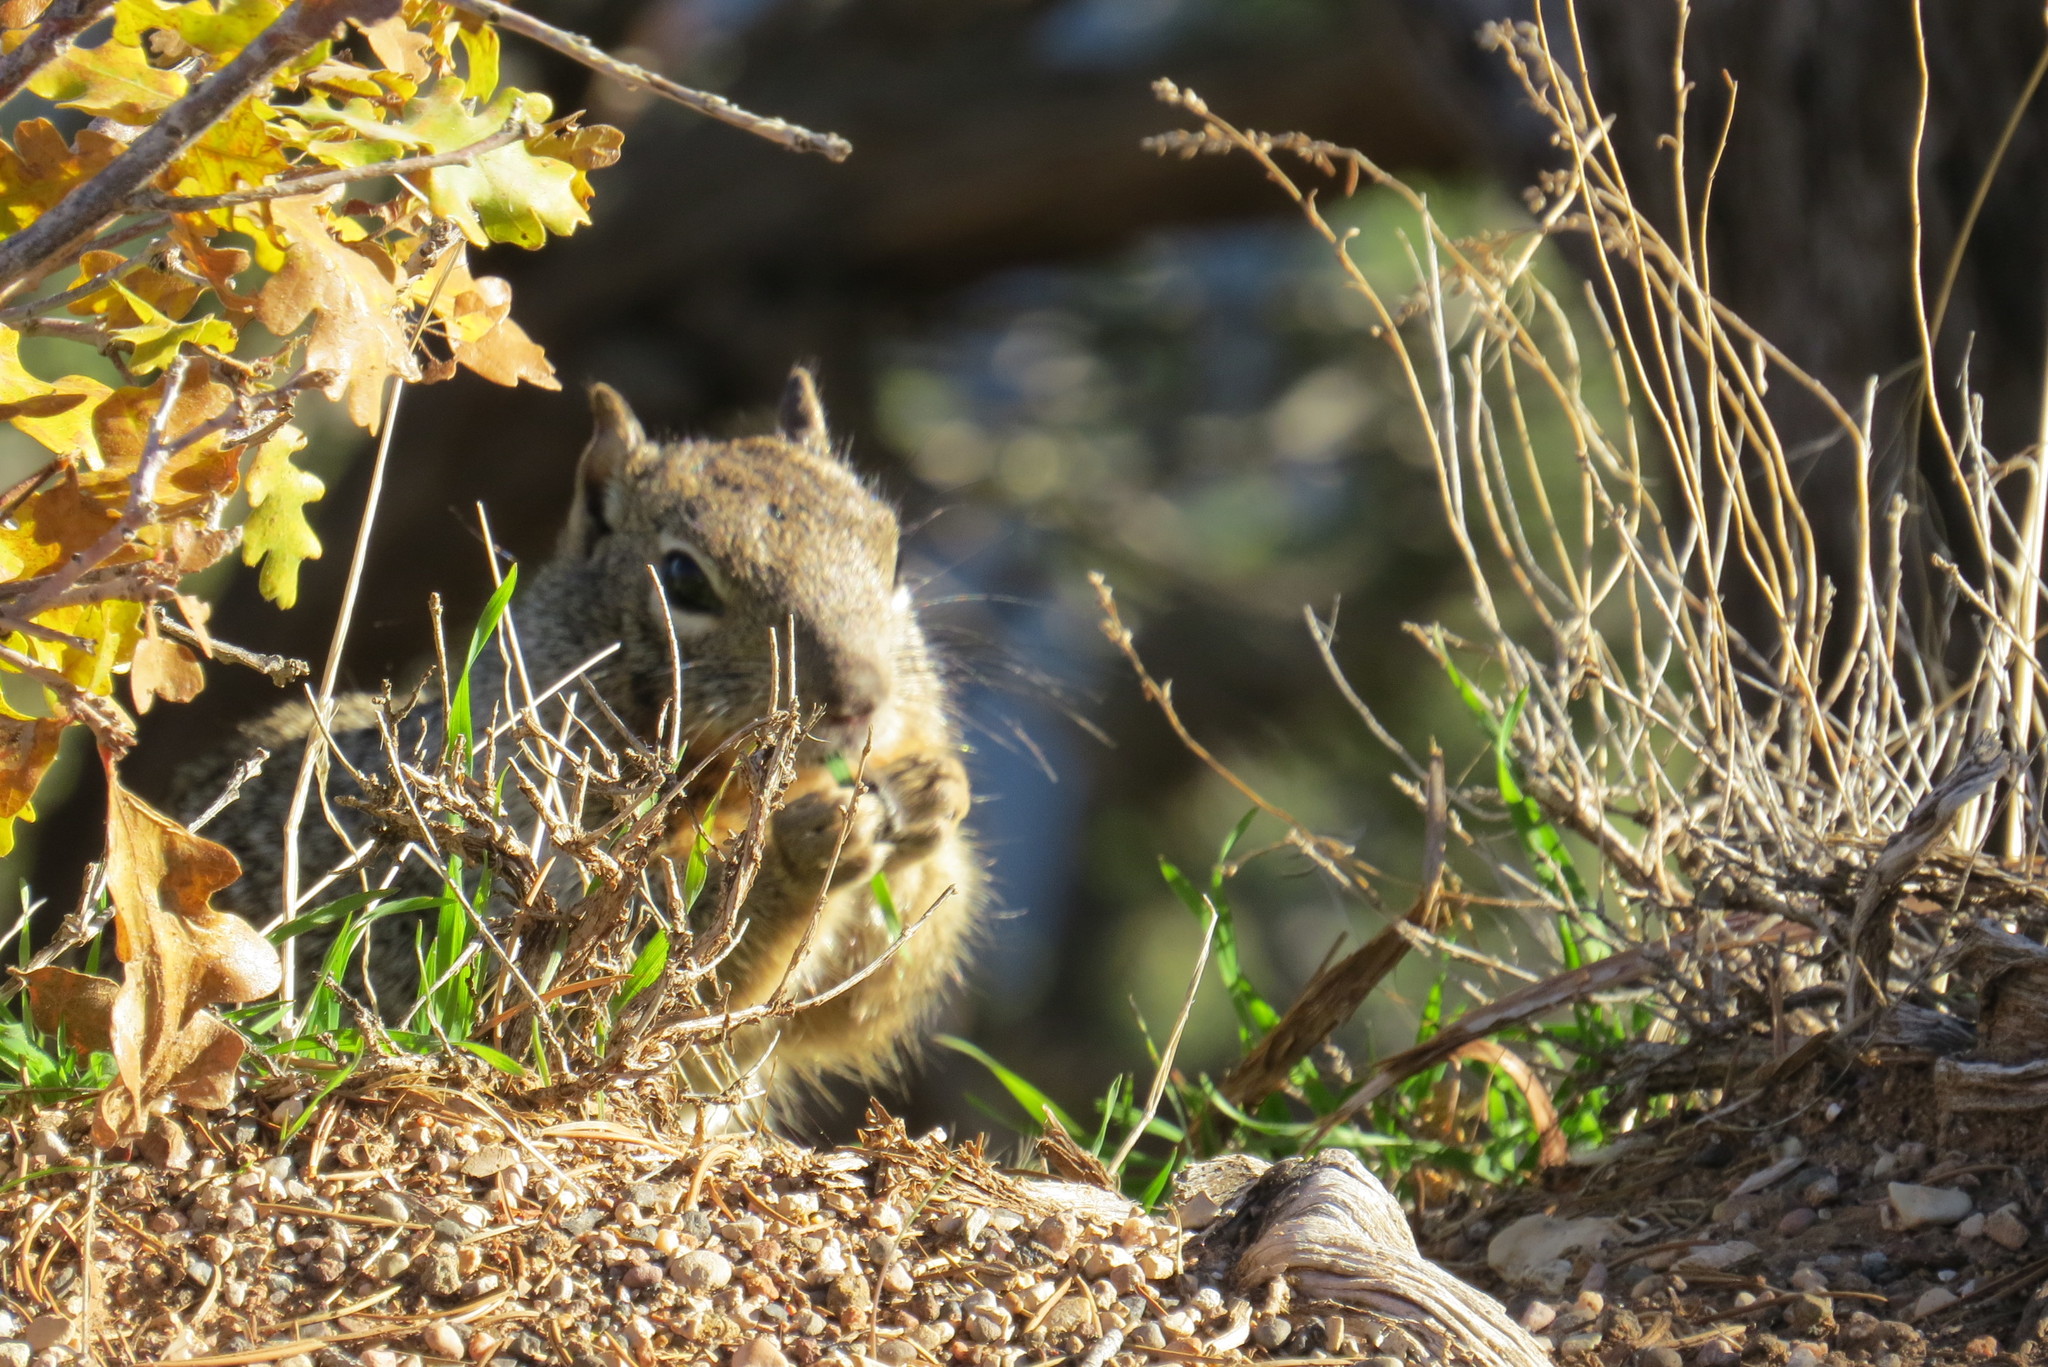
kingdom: Animalia
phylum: Chordata
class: Mammalia
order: Rodentia
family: Sciuridae
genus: Otospermophilus
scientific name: Otospermophilus variegatus
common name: Rock squirrel
